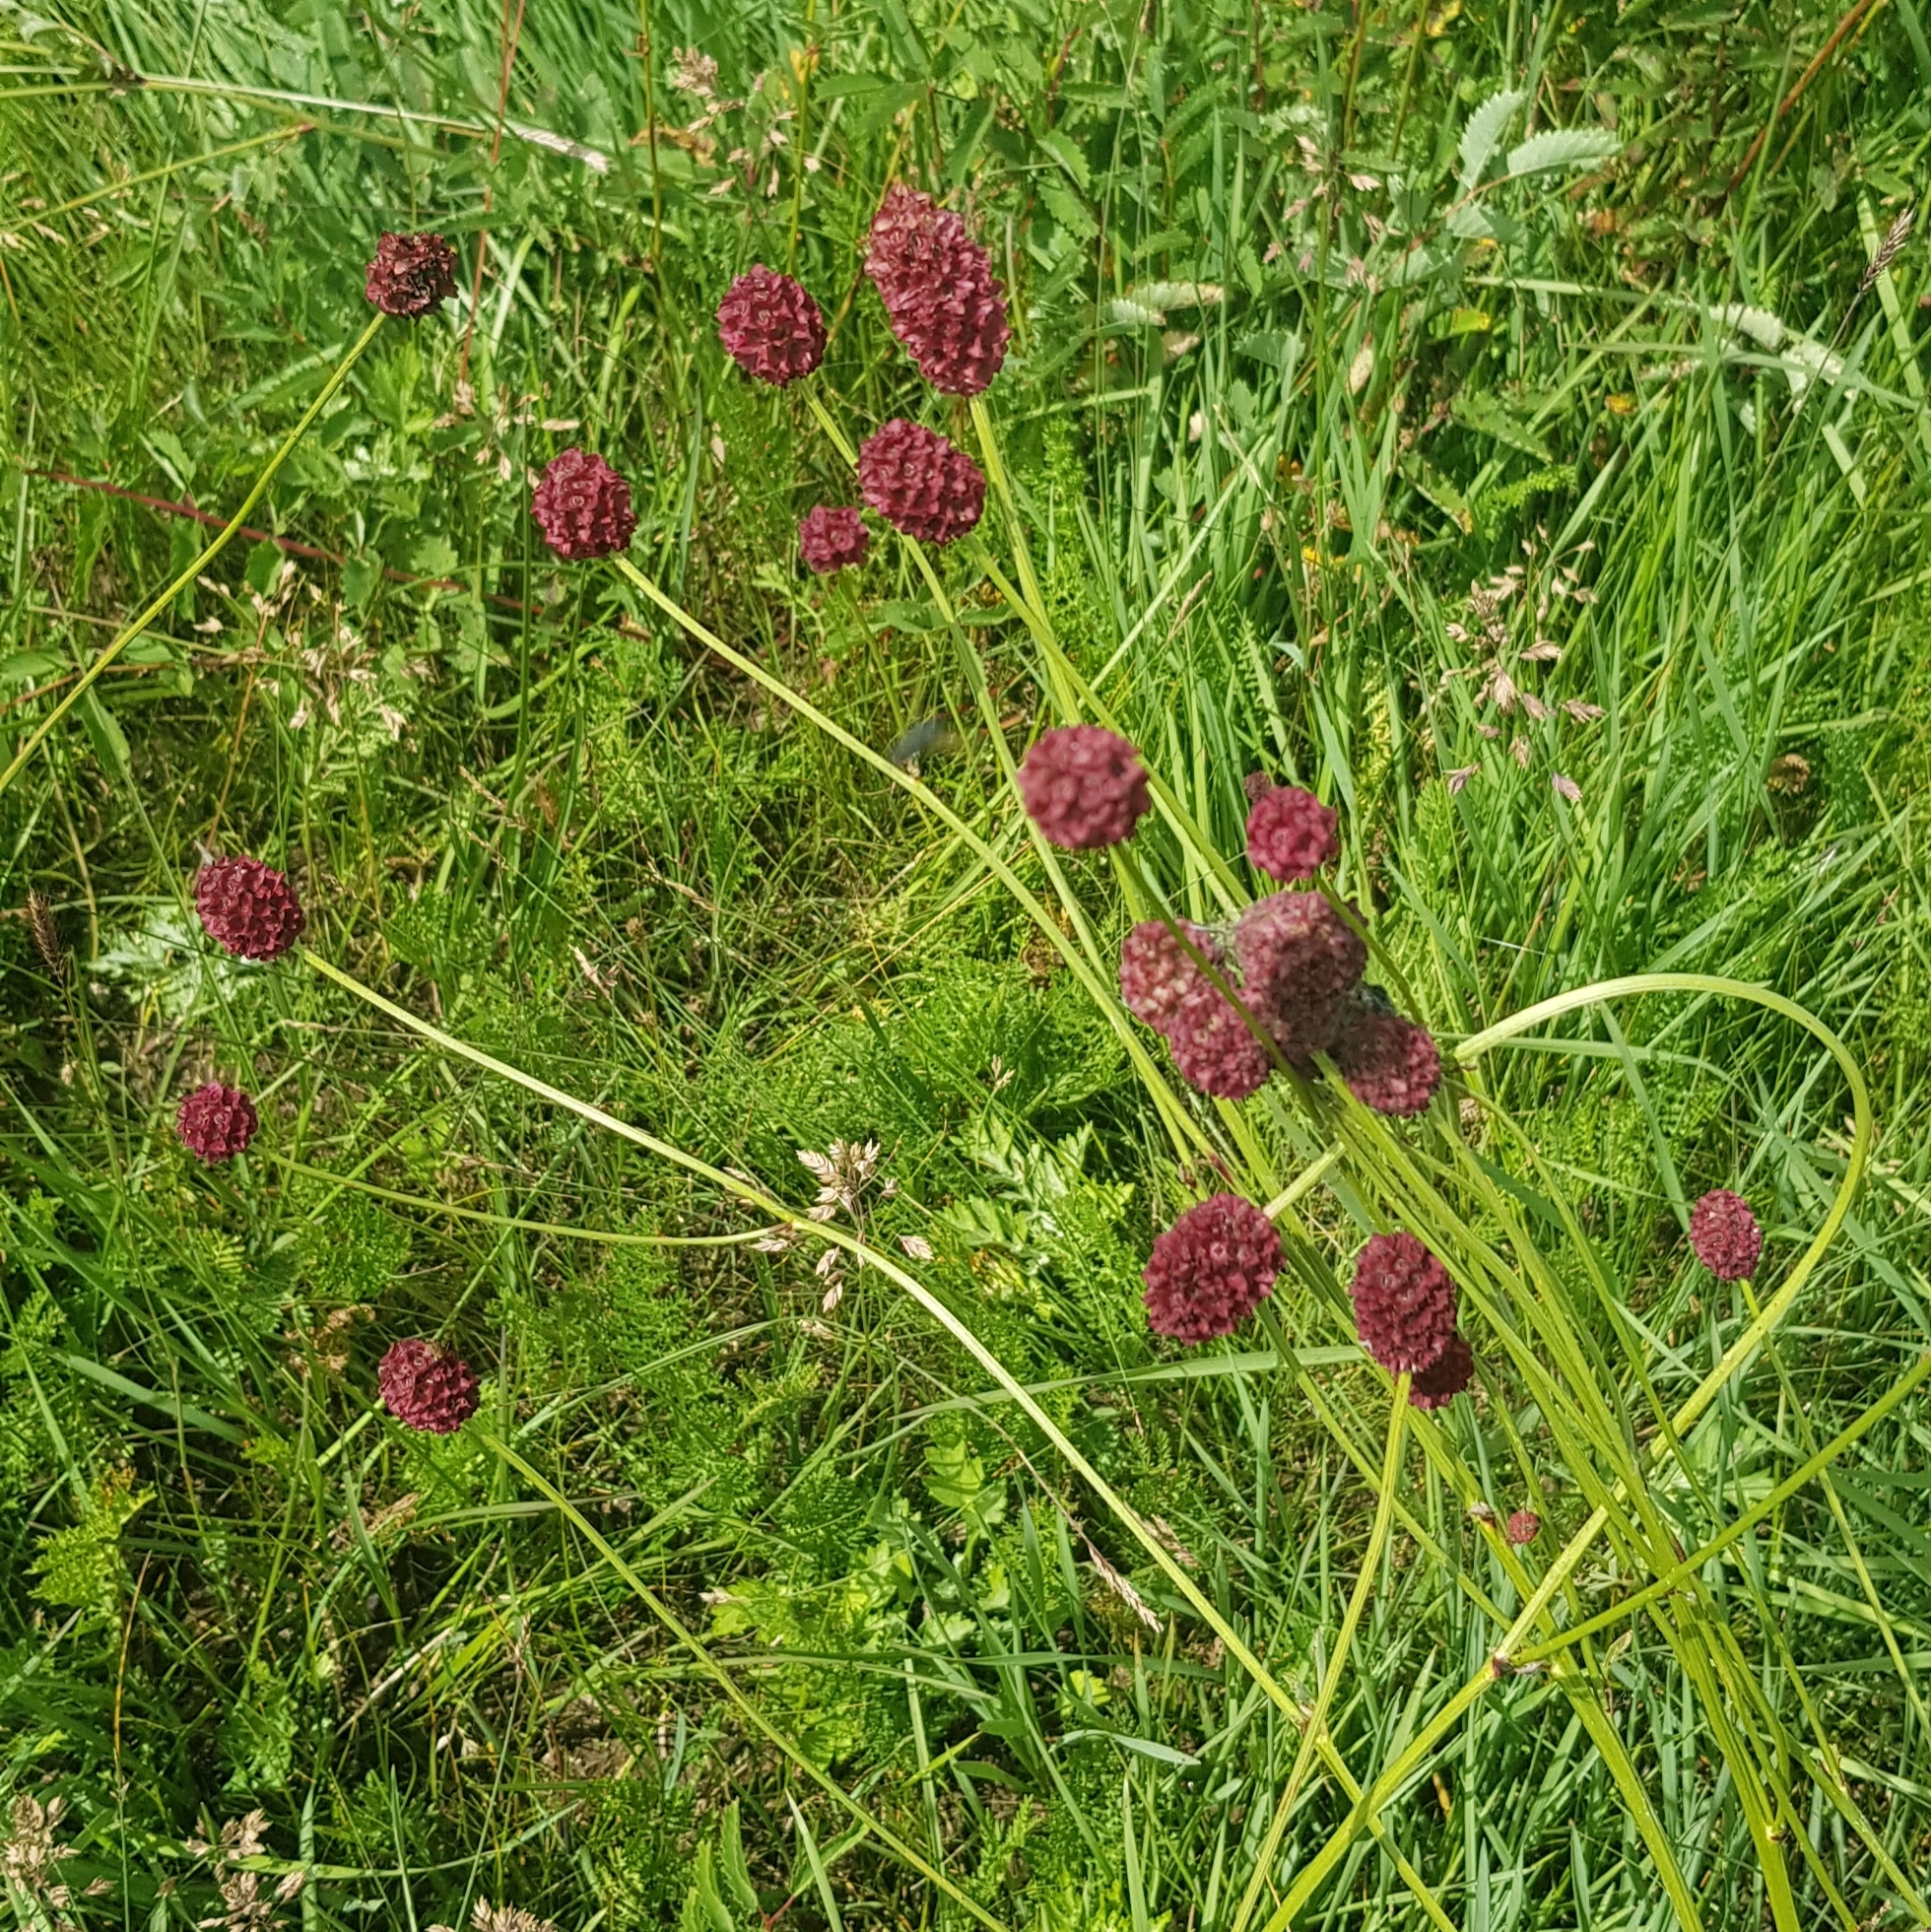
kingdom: Plantae
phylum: Tracheophyta
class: Magnoliopsida
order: Rosales
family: Rosaceae
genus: Sanguisorba
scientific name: Sanguisorba officinalis
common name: Great burnet
